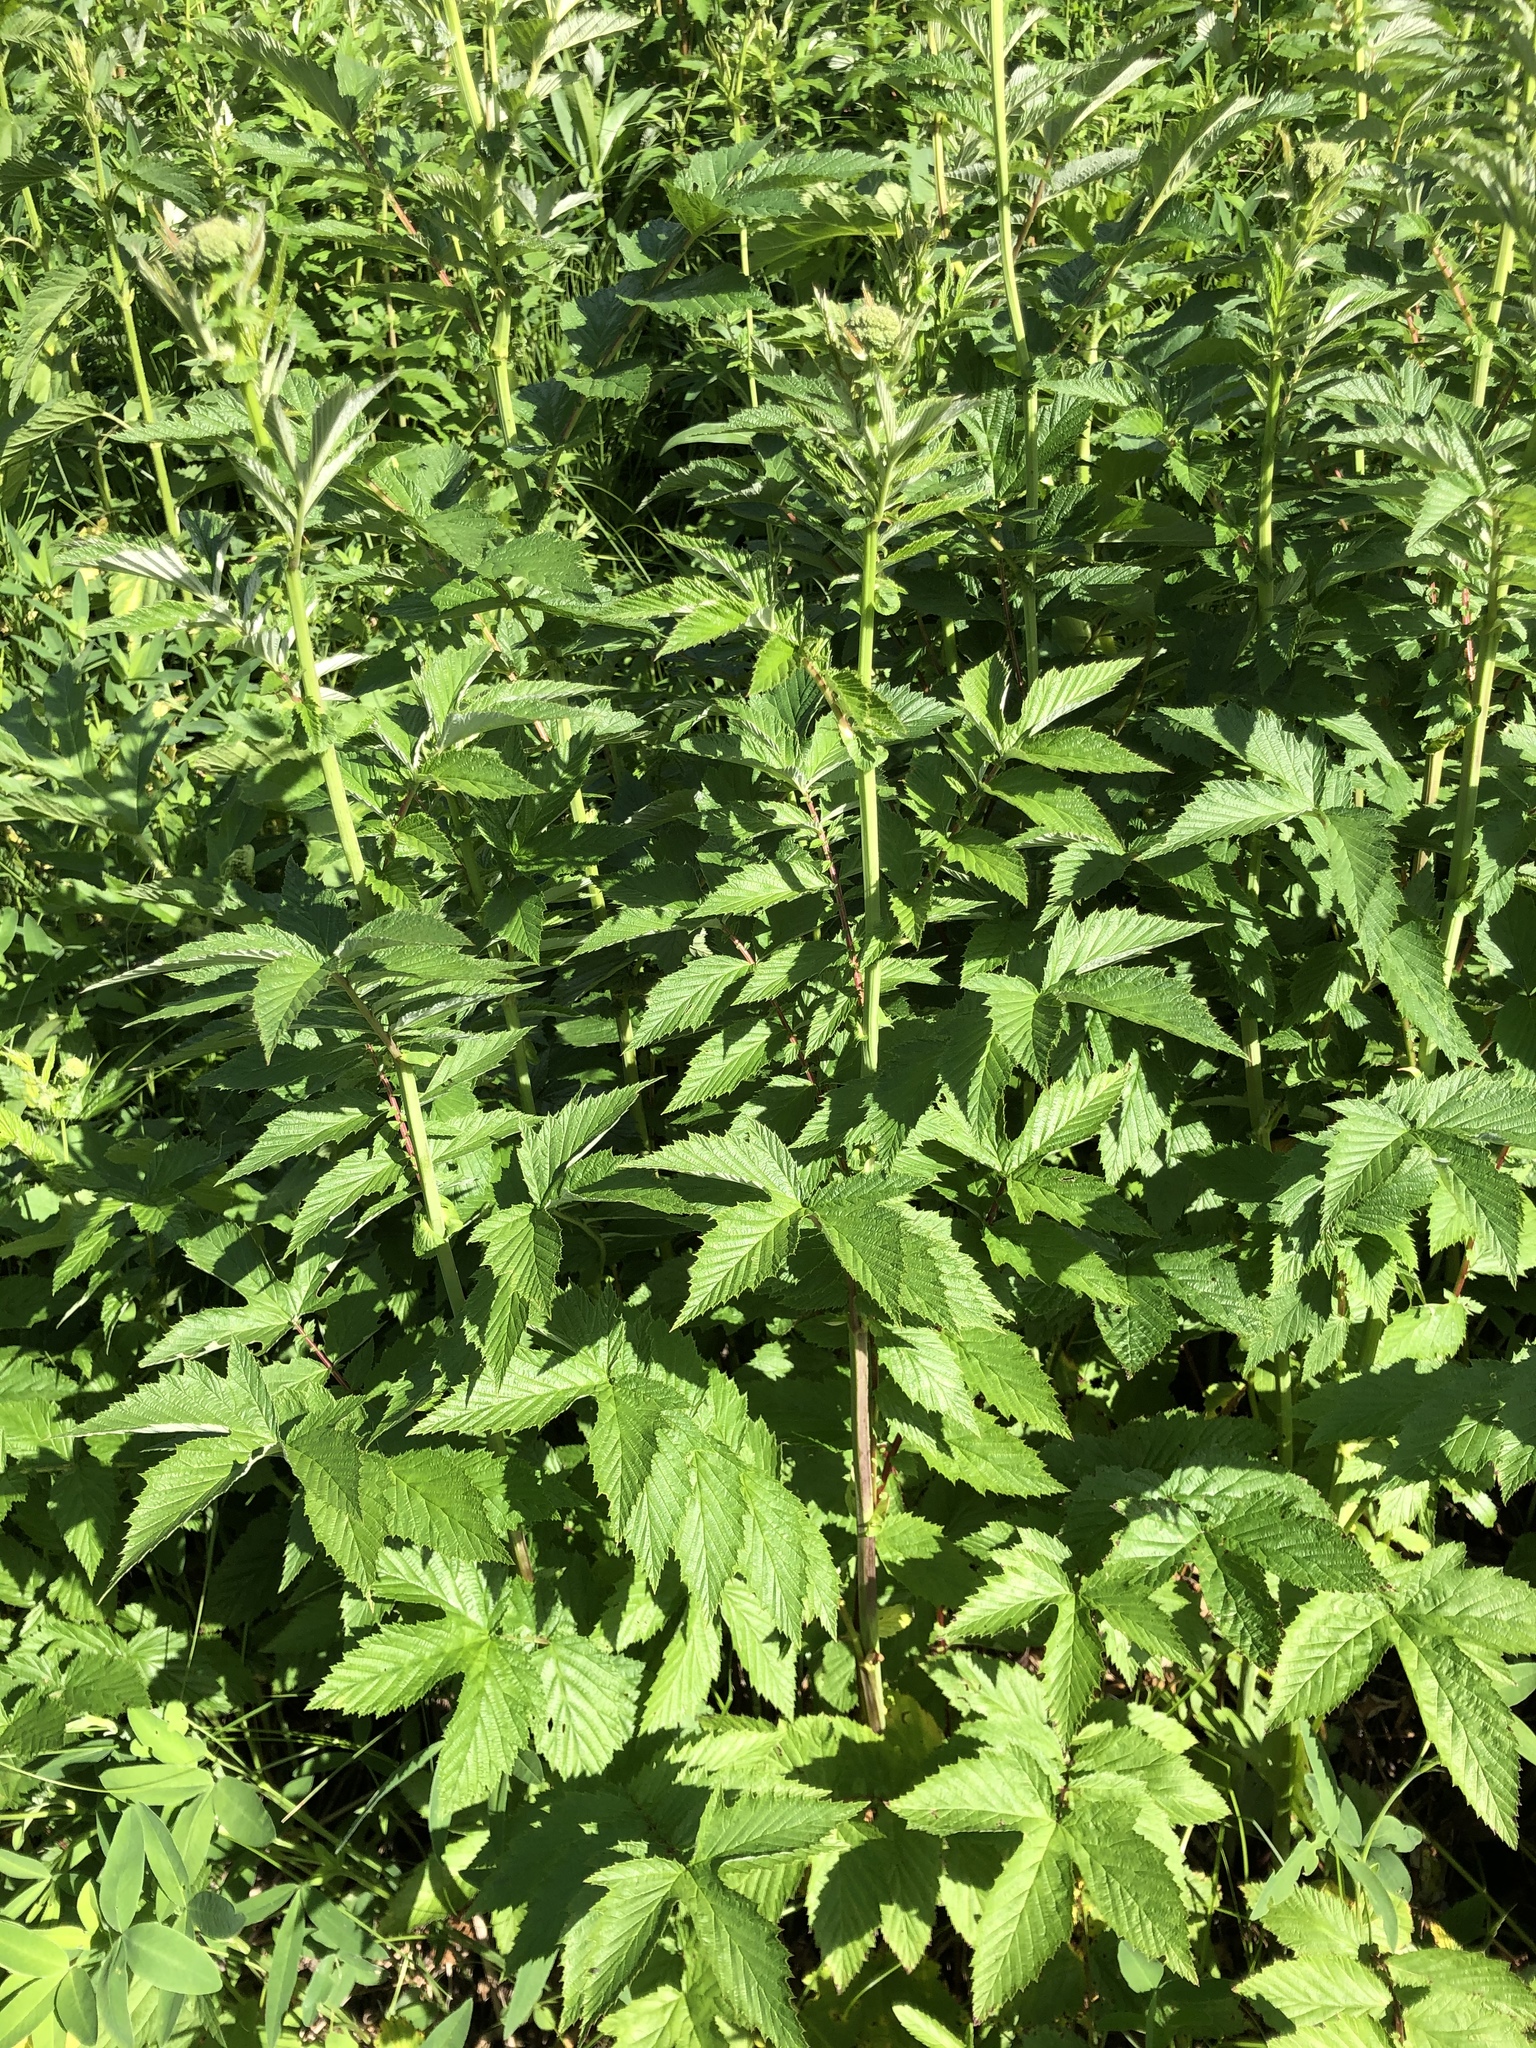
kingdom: Plantae
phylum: Tracheophyta
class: Magnoliopsida
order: Rosales
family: Rosaceae
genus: Filipendula
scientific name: Filipendula ulmaria
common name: Meadowsweet
